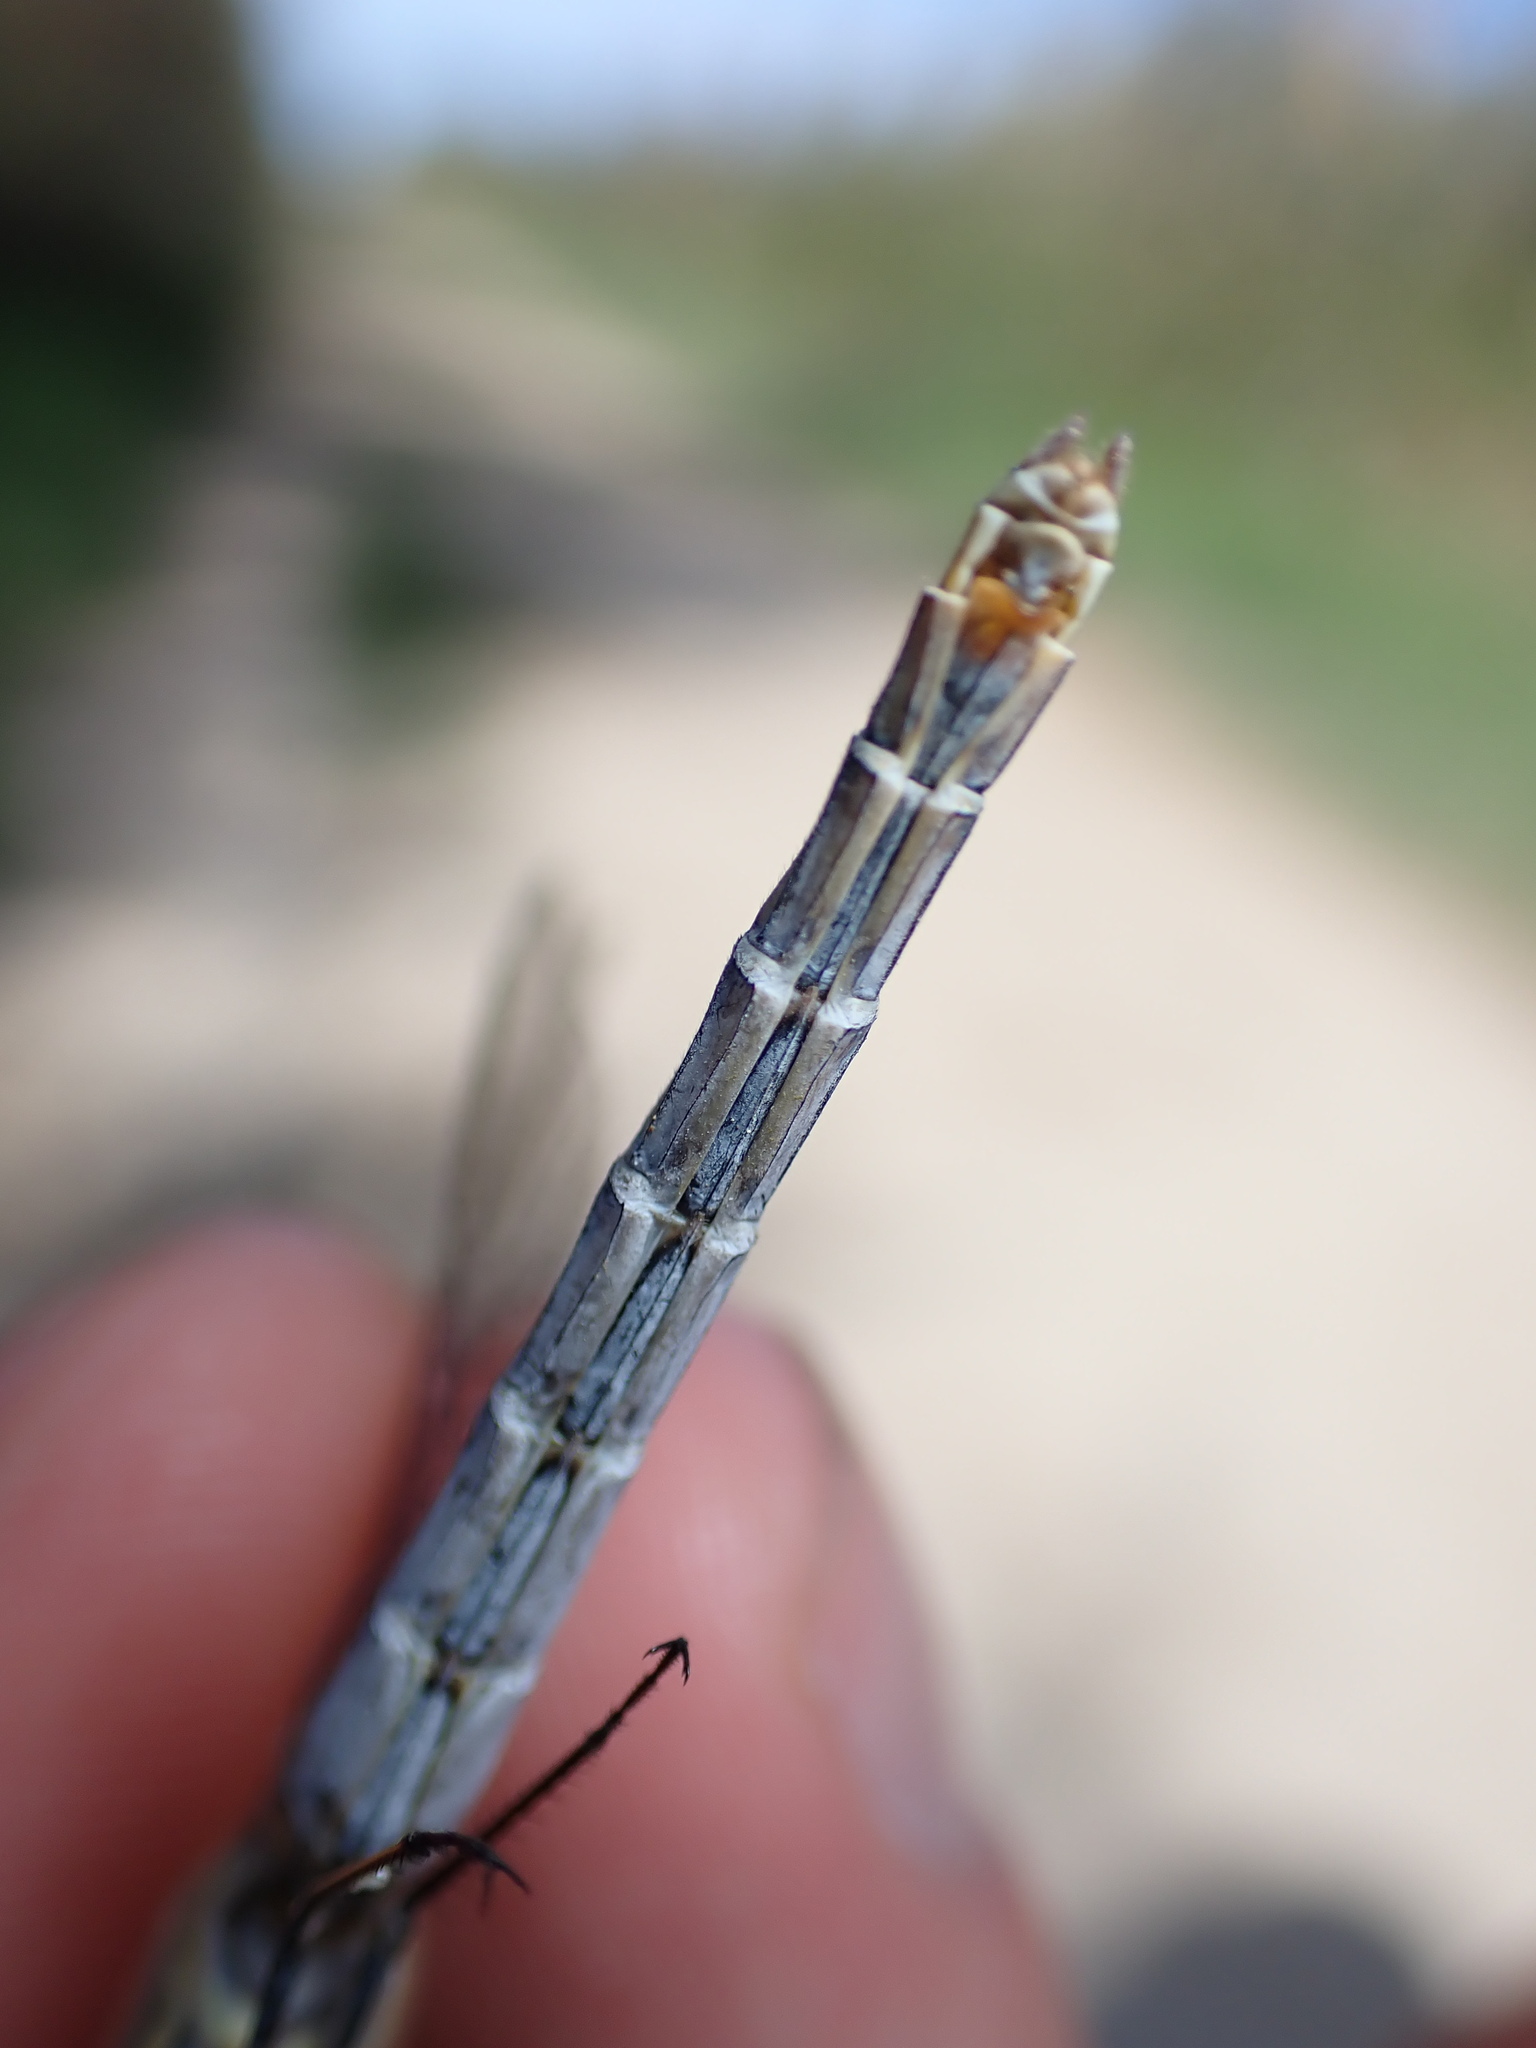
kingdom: Animalia
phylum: Arthropoda
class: Insecta
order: Odonata
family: Libellulidae
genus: Sympetrum
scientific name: Sympetrum striolatum
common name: Common darter
